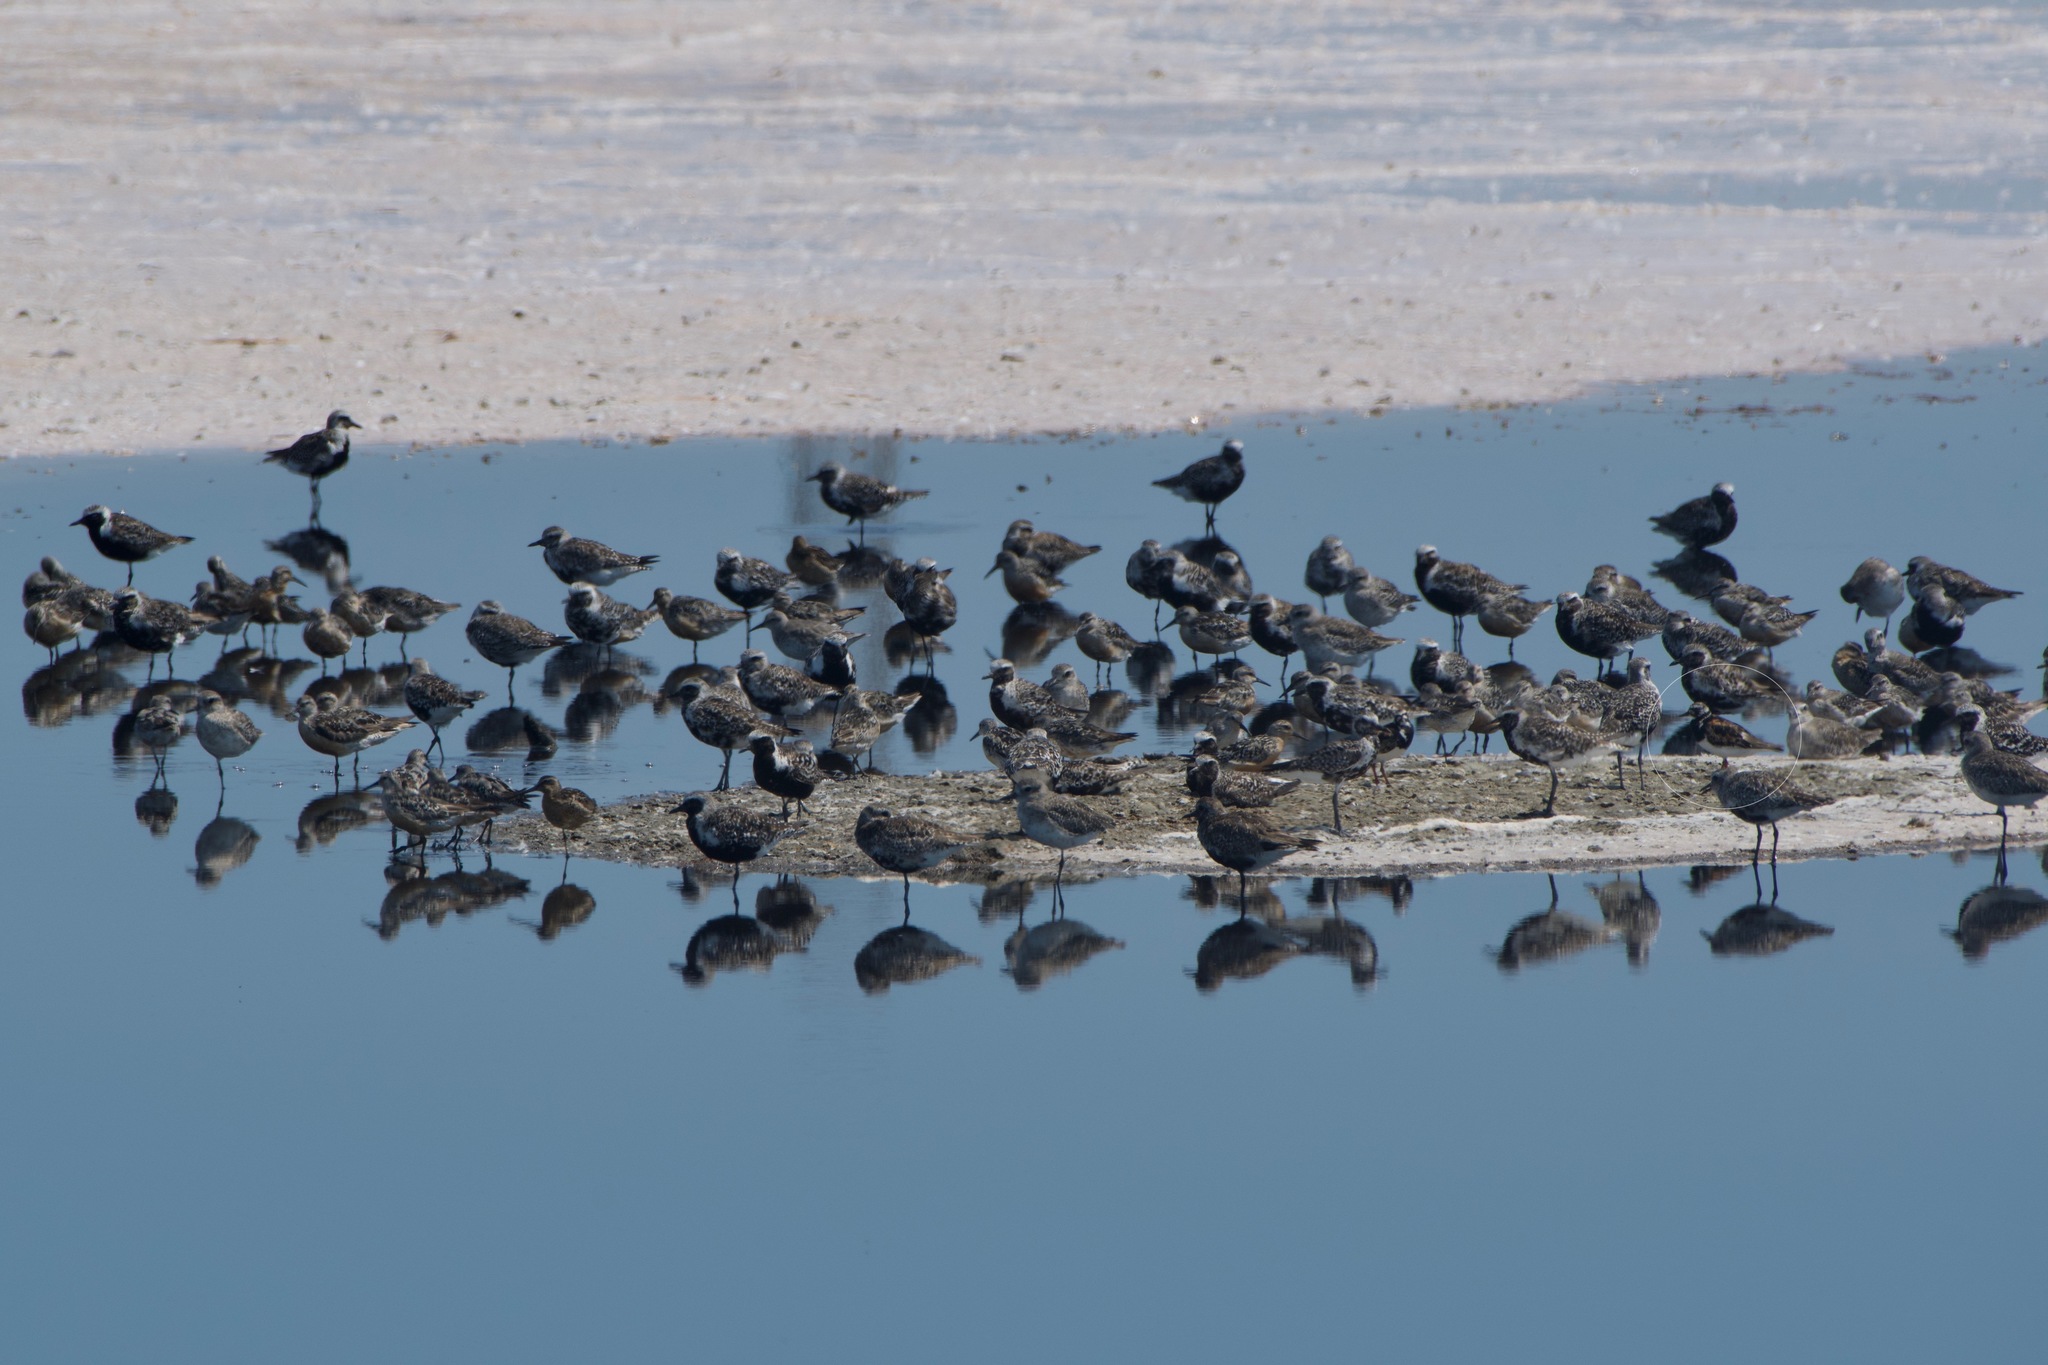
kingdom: Animalia
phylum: Chordata
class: Aves
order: Charadriiformes
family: Scolopacidae
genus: Arenaria
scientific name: Arenaria interpres
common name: Ruddy turnstone
